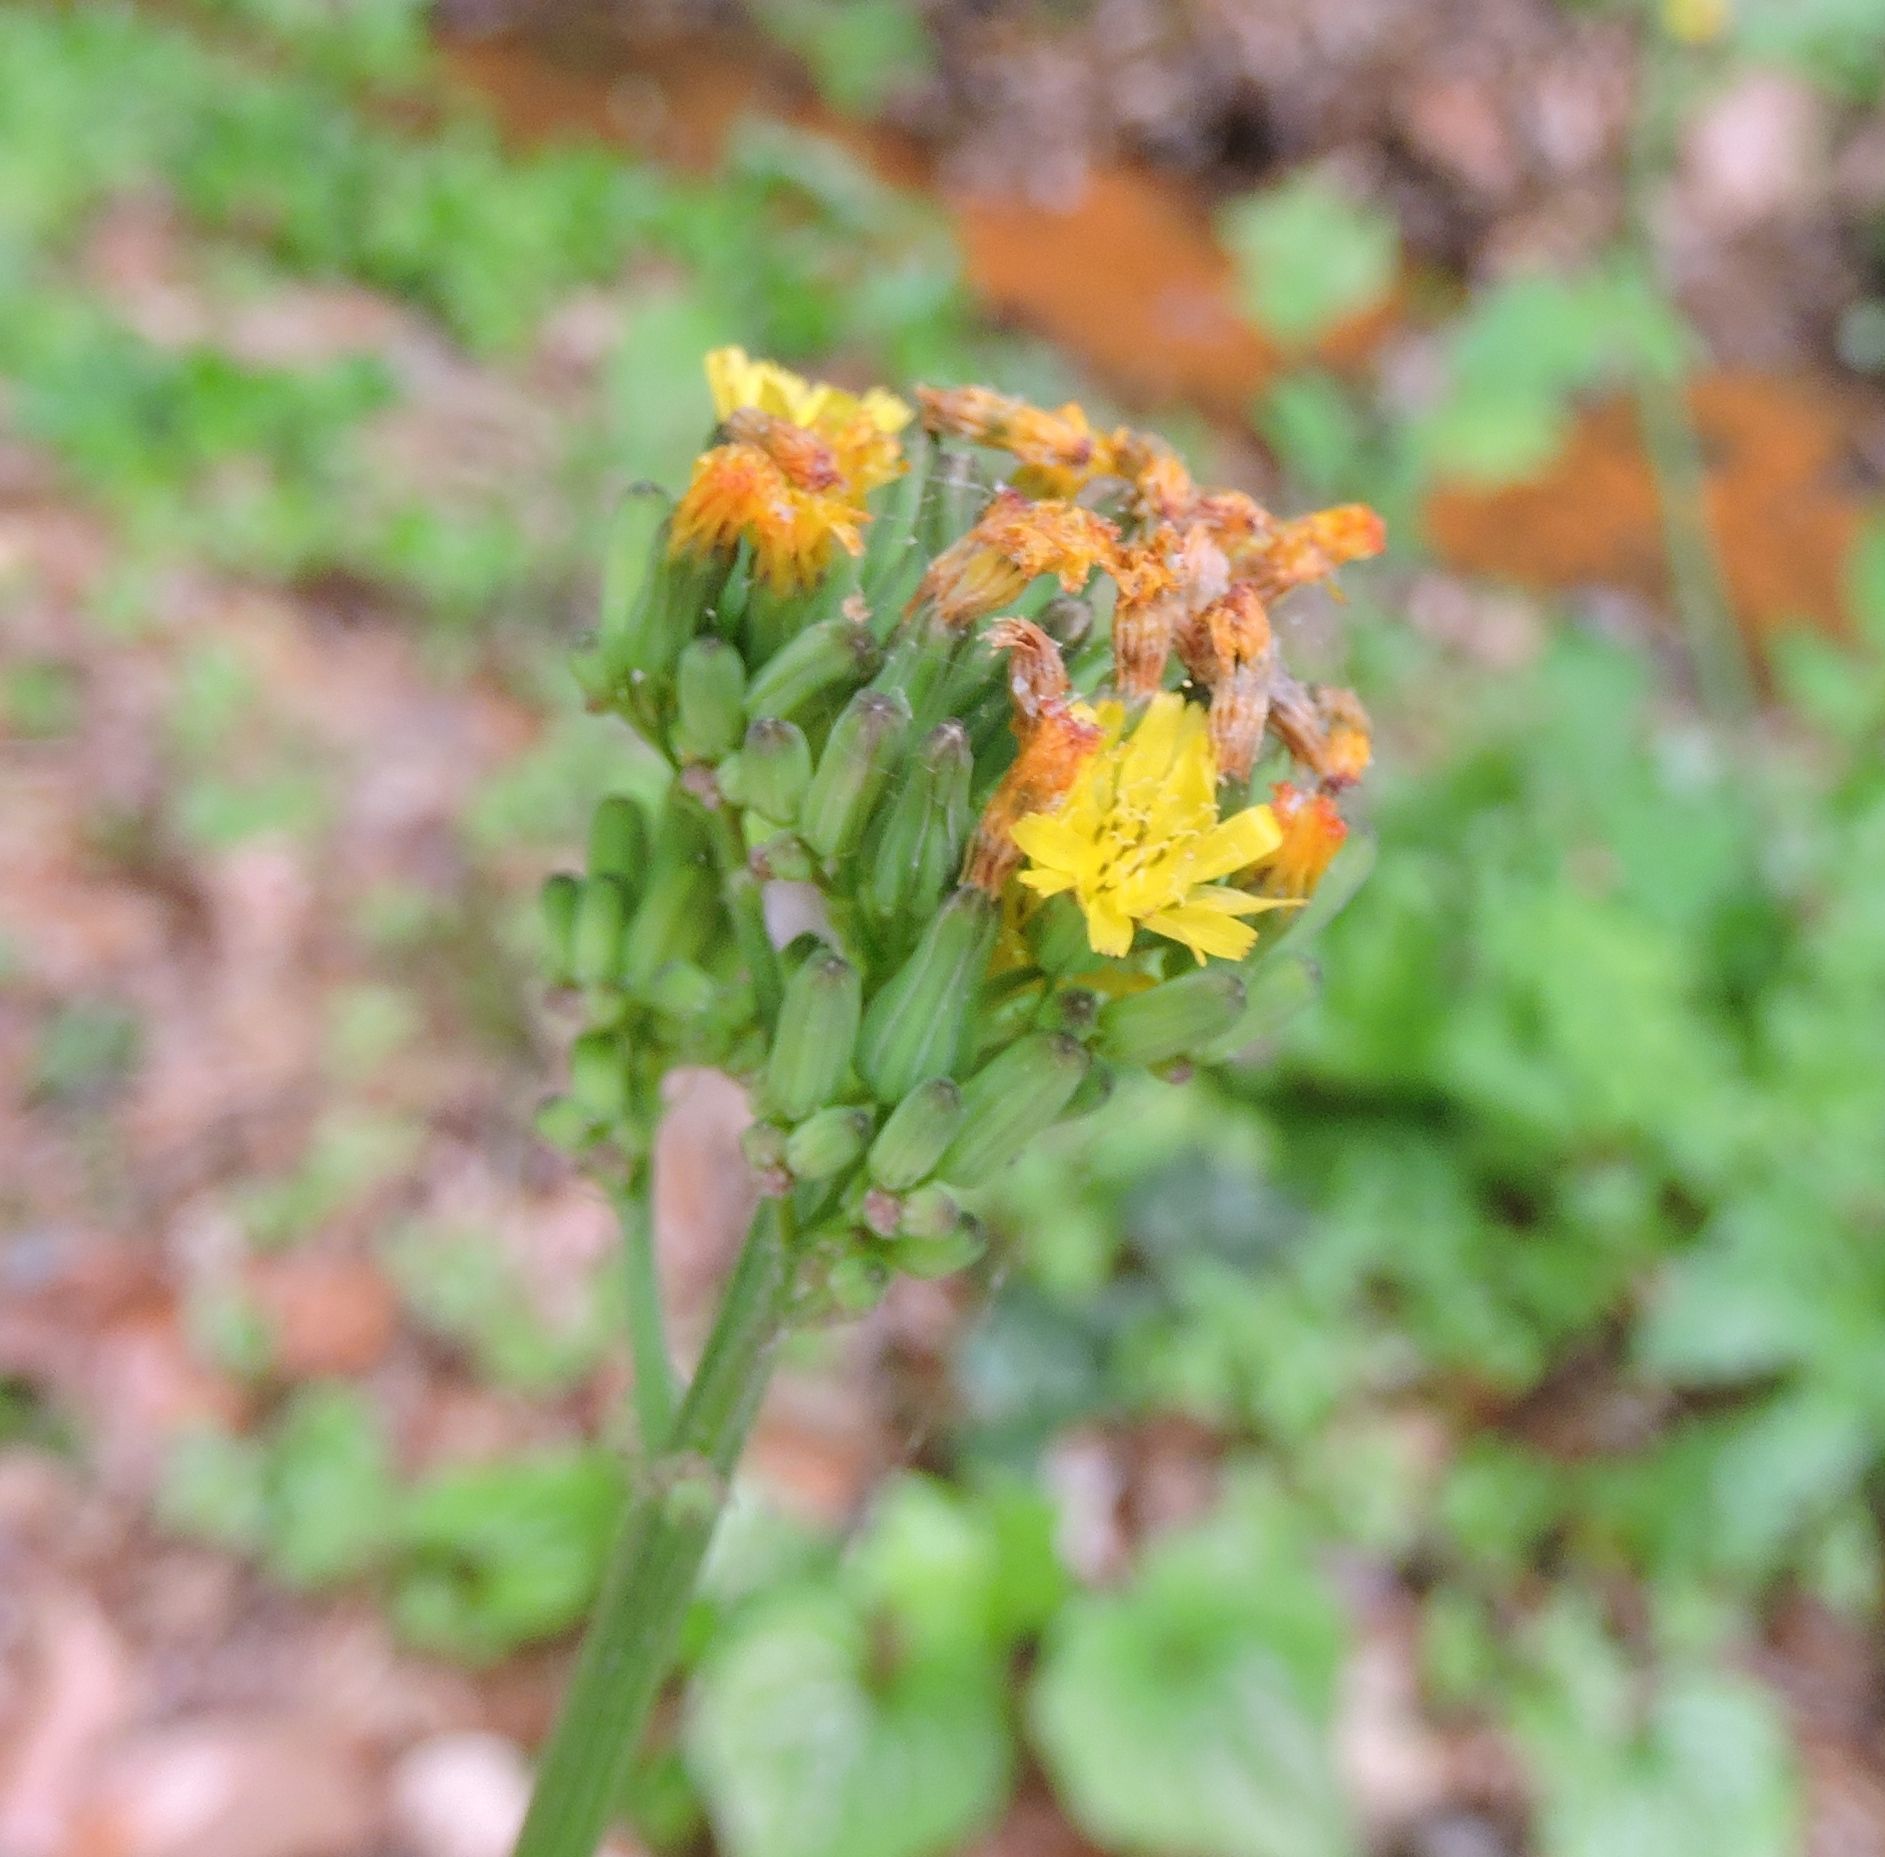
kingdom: Plantae
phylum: Tracheophyta
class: Magnoliopsida
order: Asterales
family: Asteraceae
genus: Youngia
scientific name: Youngia japonica
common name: Oriental false hawksbeard
